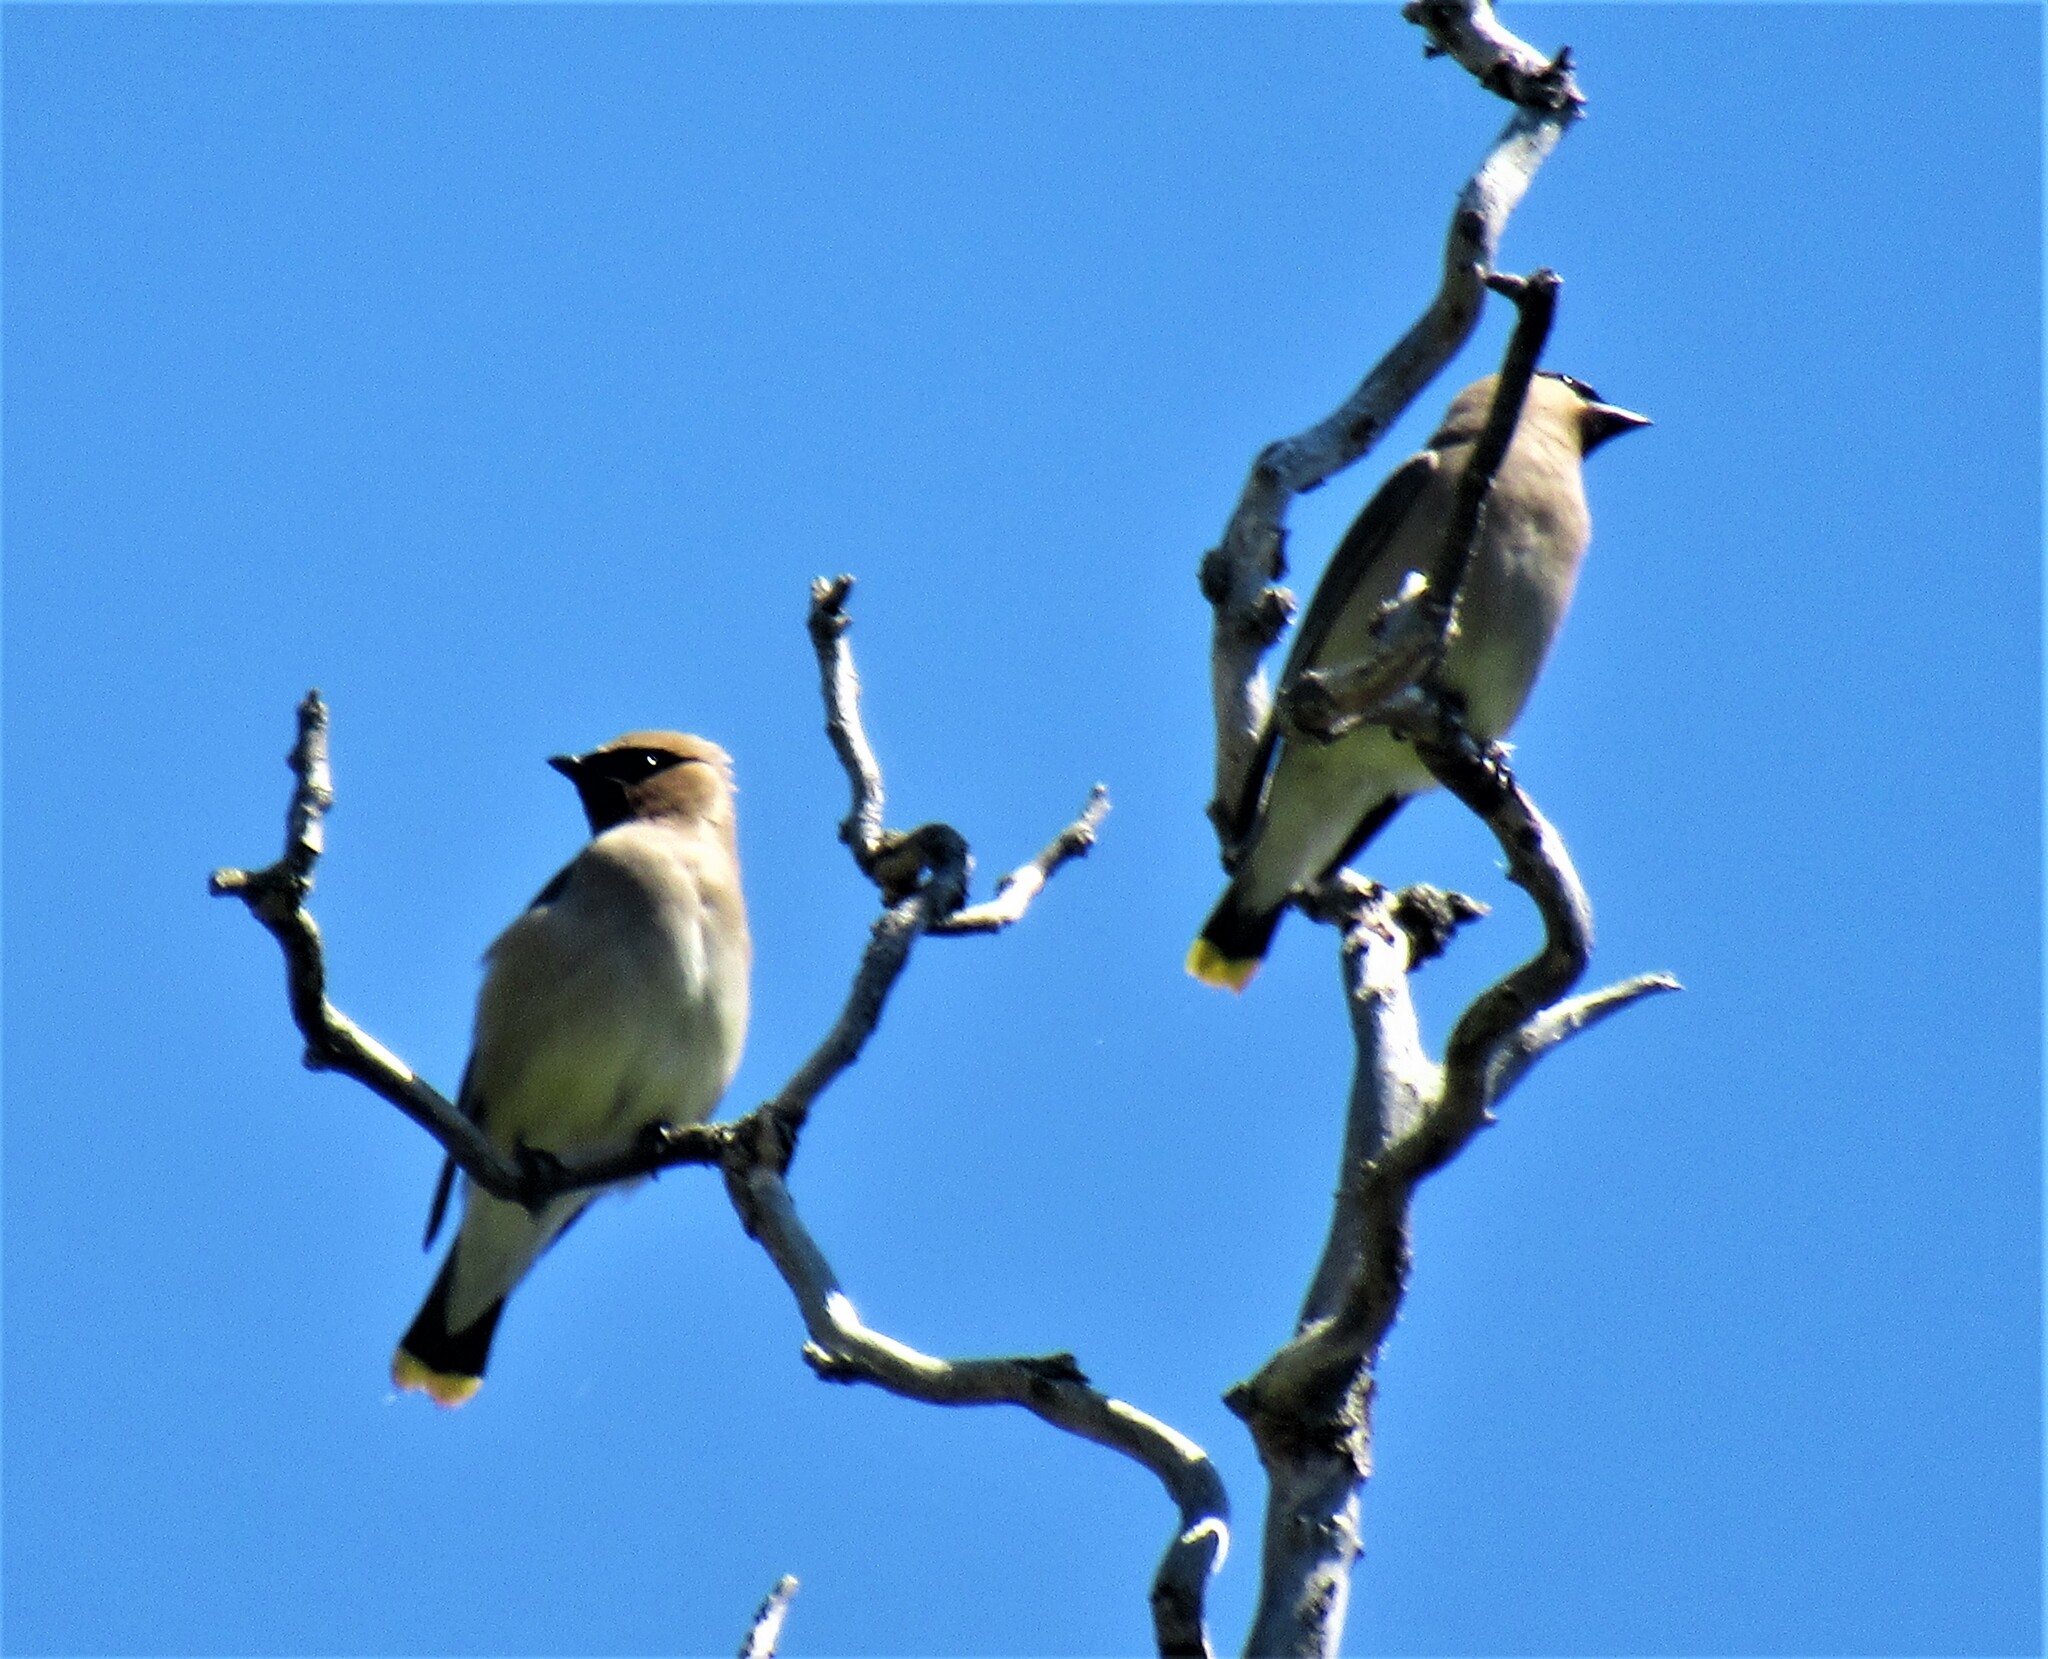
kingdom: Animalia
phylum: Chordata
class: Aves
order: Passeriformes
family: Bombycillidae
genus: Bombycilla
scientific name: Bombycilla cedrorum
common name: Cedar waxwing
